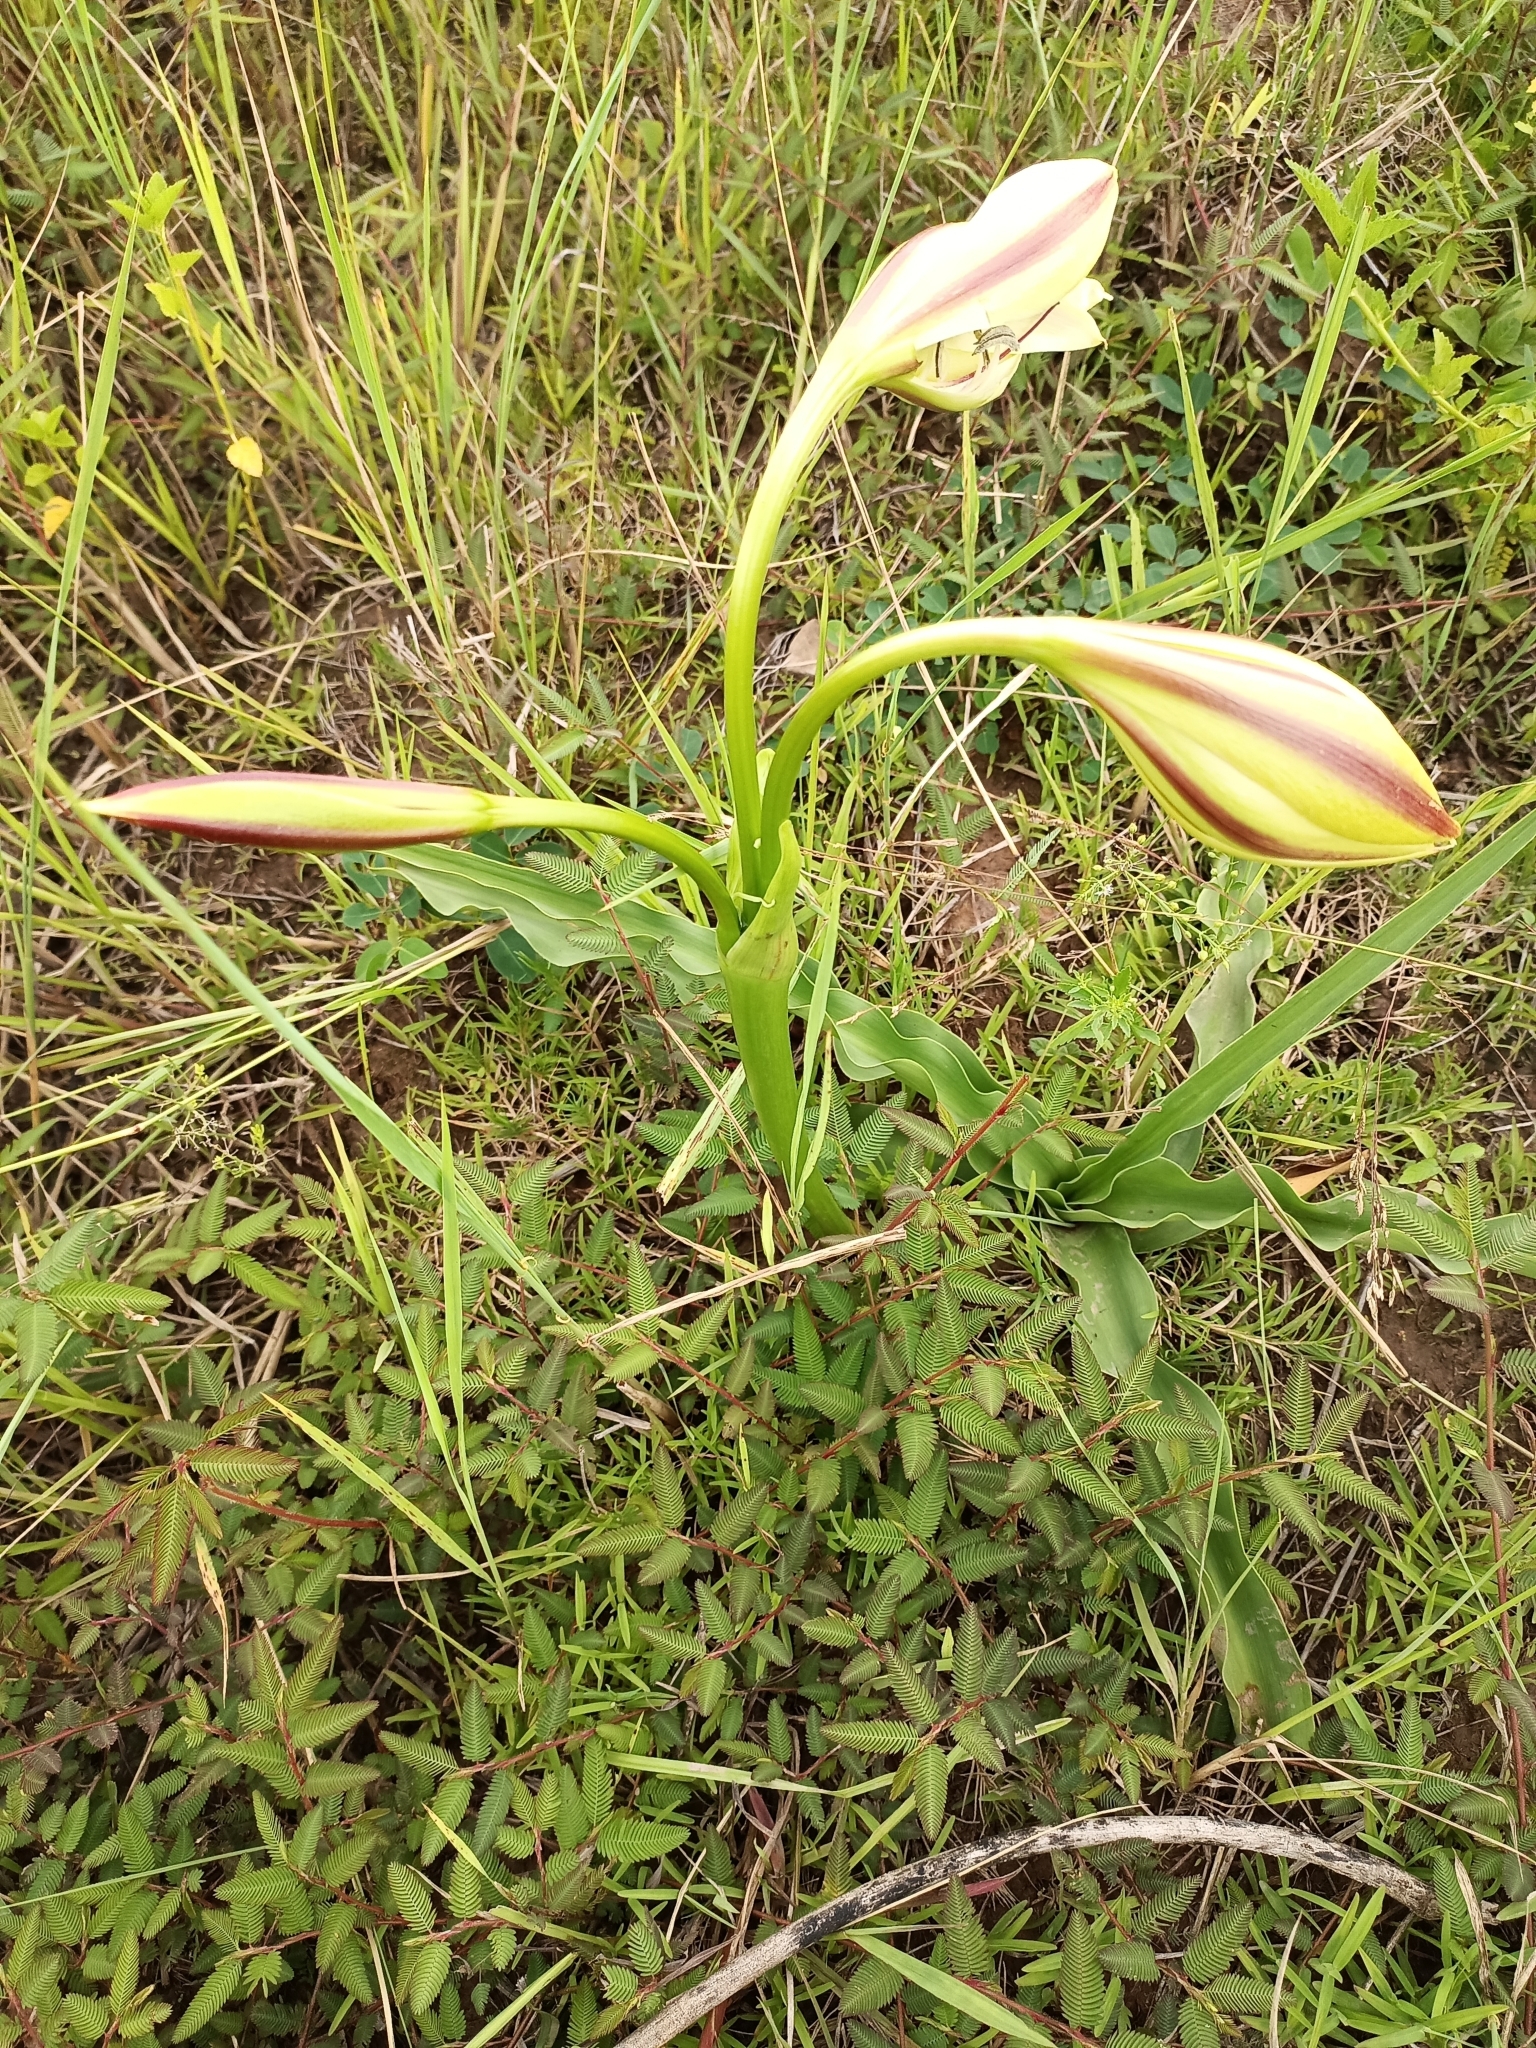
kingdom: Plantae
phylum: Tracheophyta
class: Liliopsida
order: Asparagales
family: Amaryllidaceae
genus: Crinum
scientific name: Crinum ornatum
